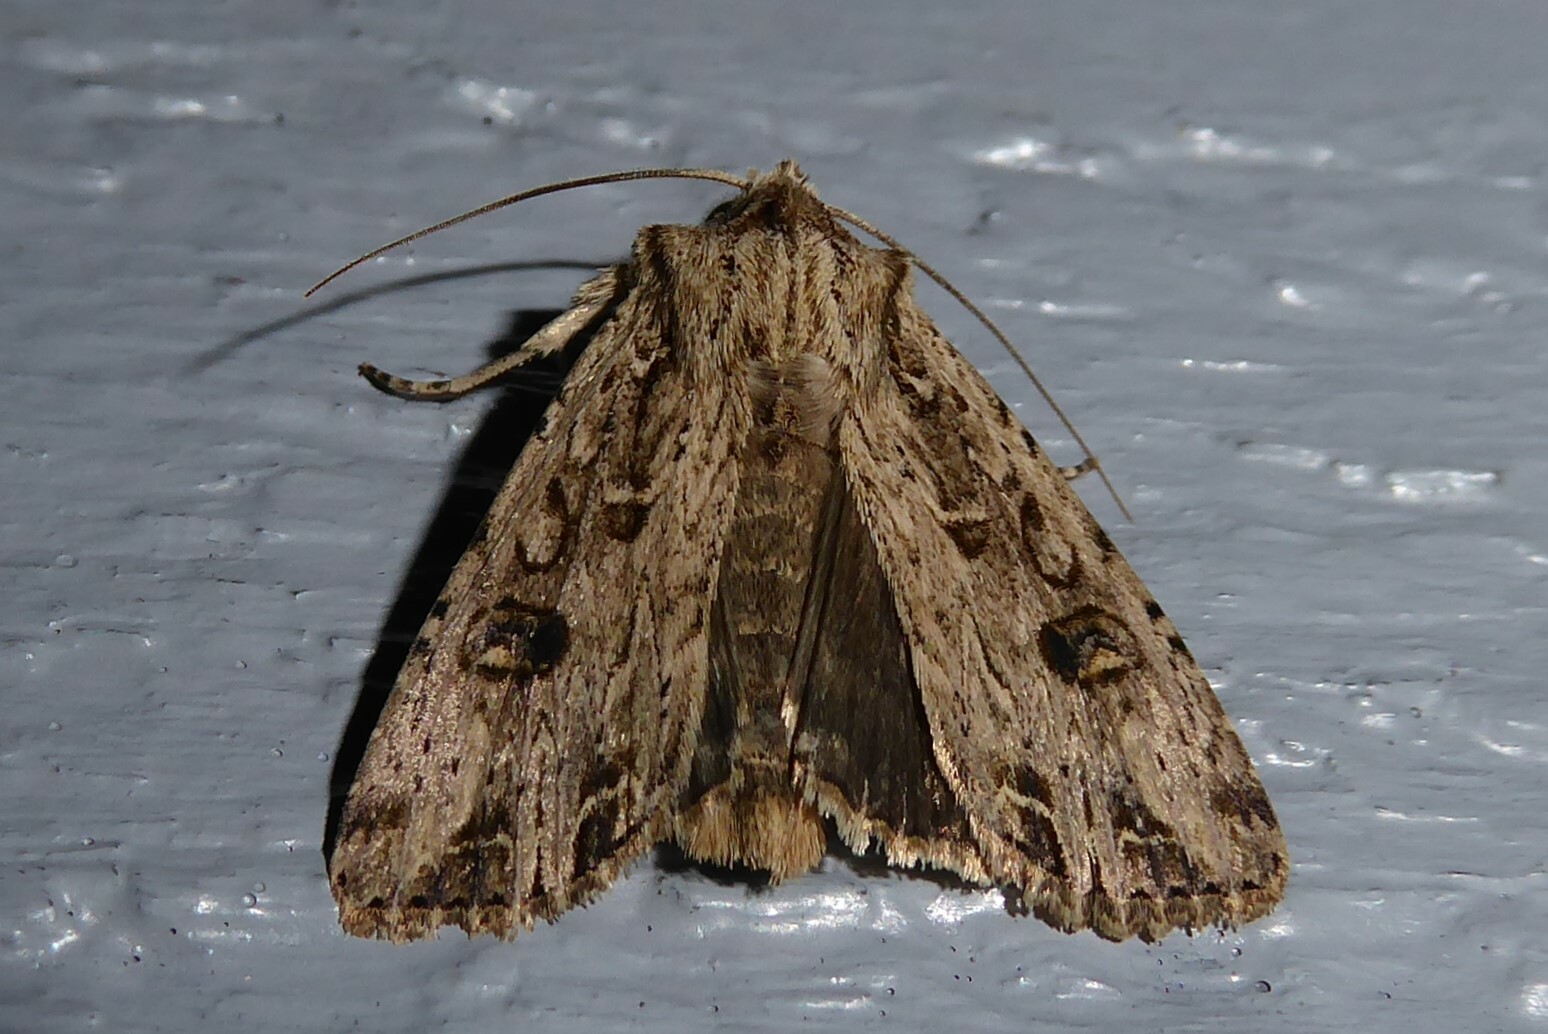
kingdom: Animalia
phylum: Arthropoda
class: Insecta
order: Lepidoptera
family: Noctuidae
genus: Ichneutica
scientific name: Ichneutica lignana
